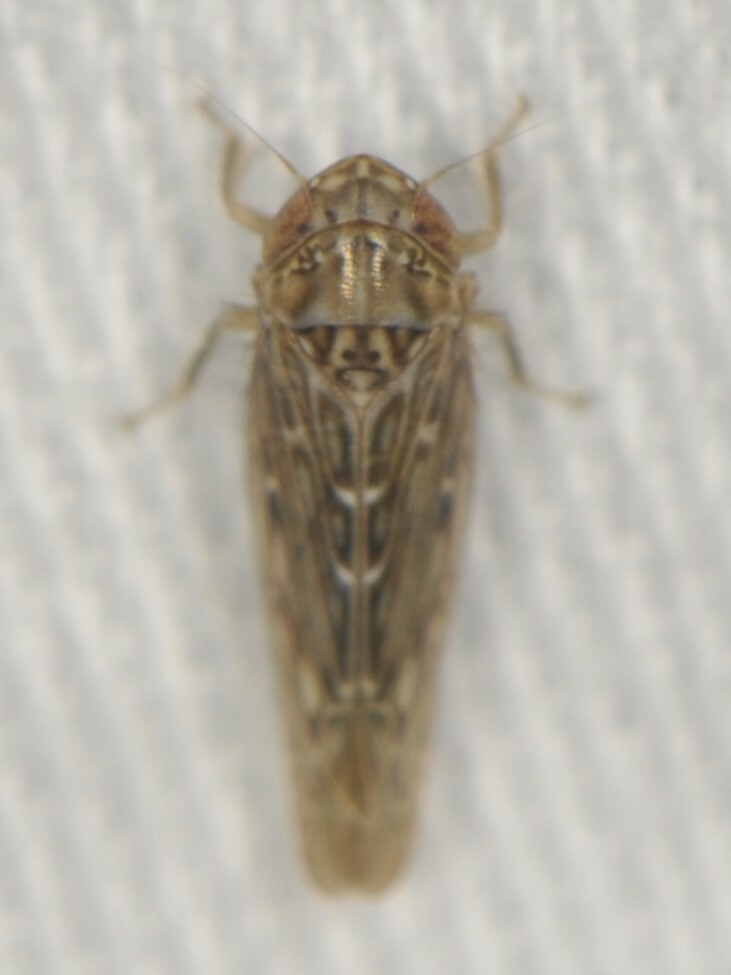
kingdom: Animalia
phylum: Arthropoda
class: Insecta
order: Hemiptera
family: Cicadellidae
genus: Doleranus
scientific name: Doleranus
